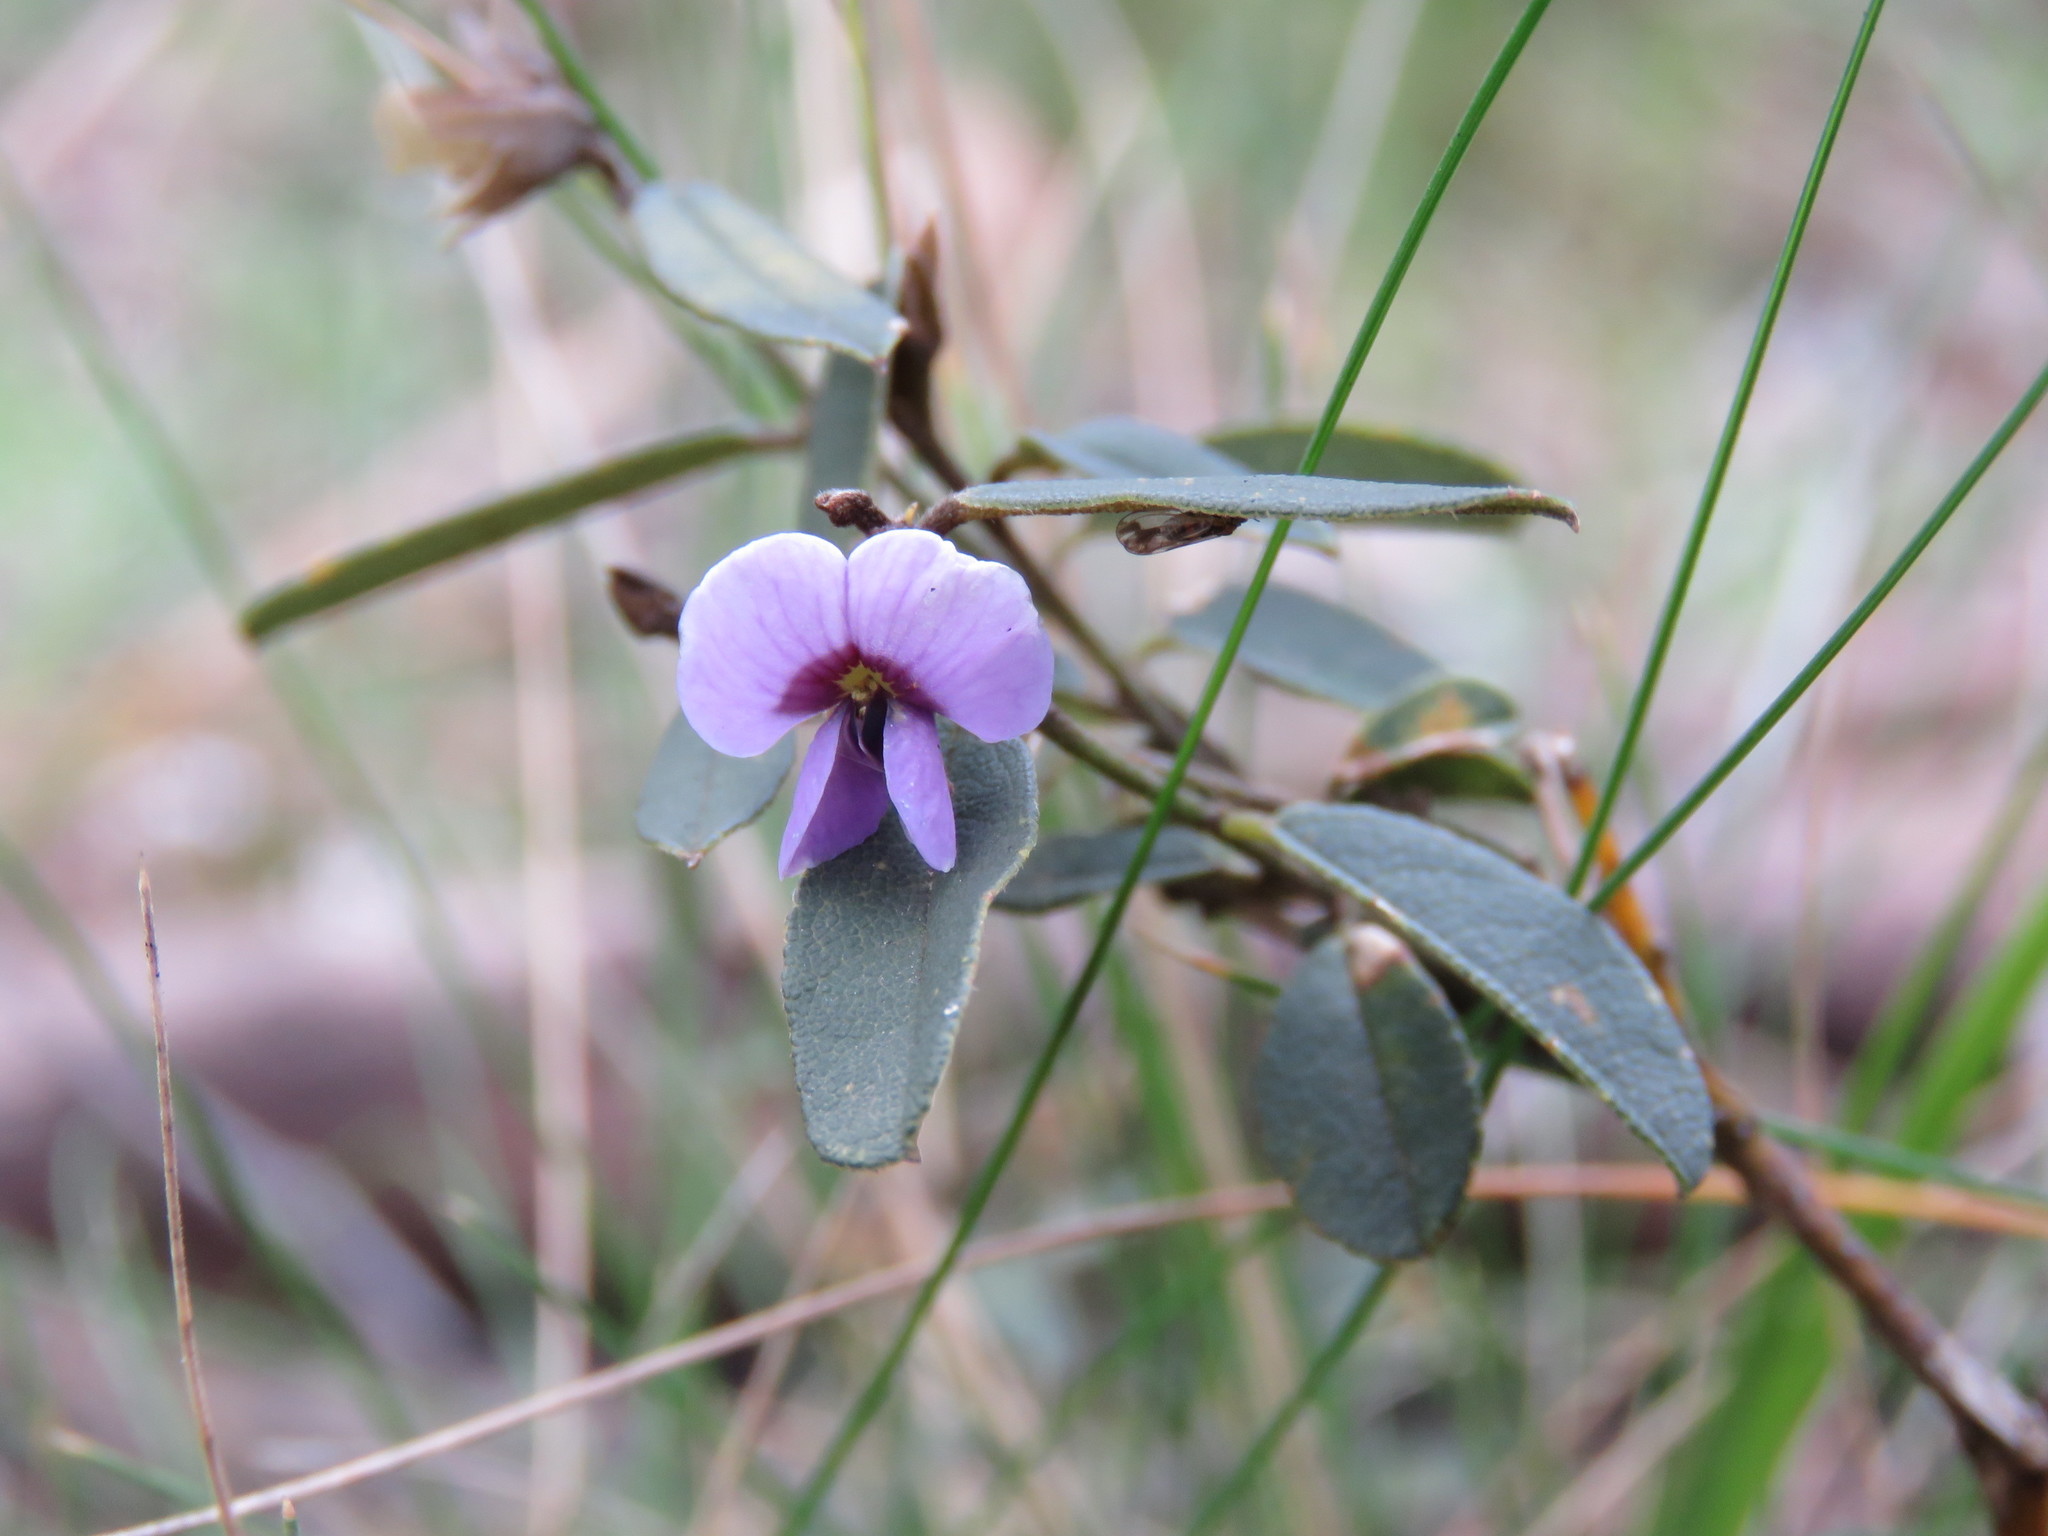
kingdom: Plantae
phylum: Tracheophyta
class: Magnoliopsida
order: Fabales
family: Fabaceae
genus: Hovea
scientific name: Hovea heterophylla
